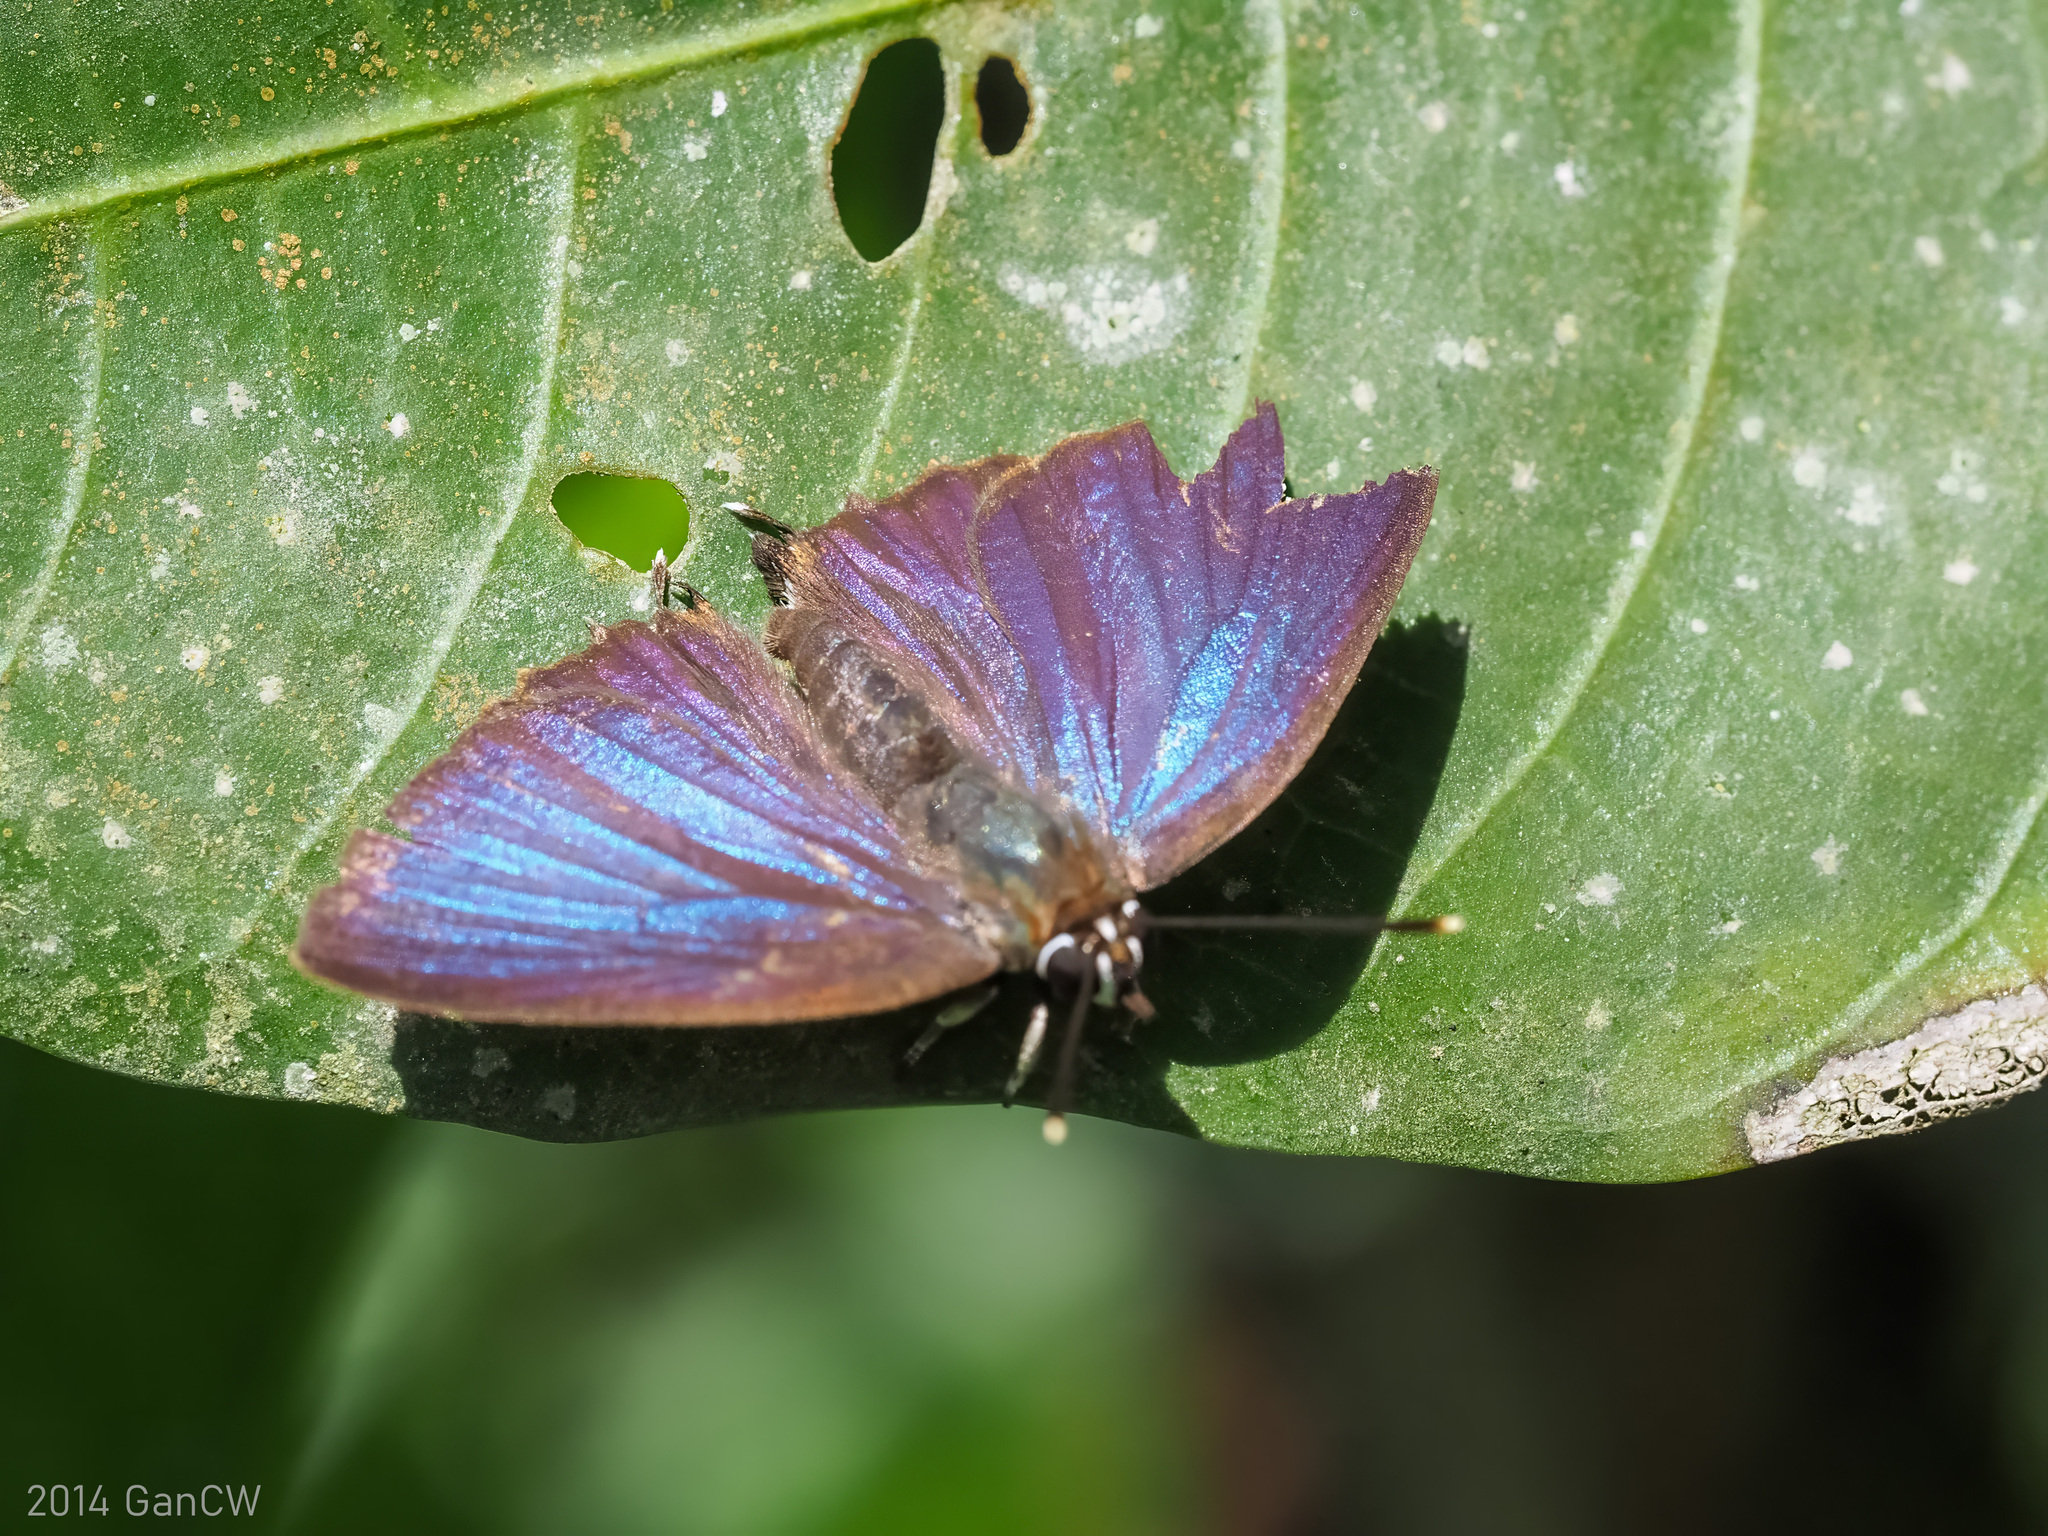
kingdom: Animalia
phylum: Arthropoda
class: Insecta
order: Lepidoptera
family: Lycaenidae
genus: Iraota
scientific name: Iraota
